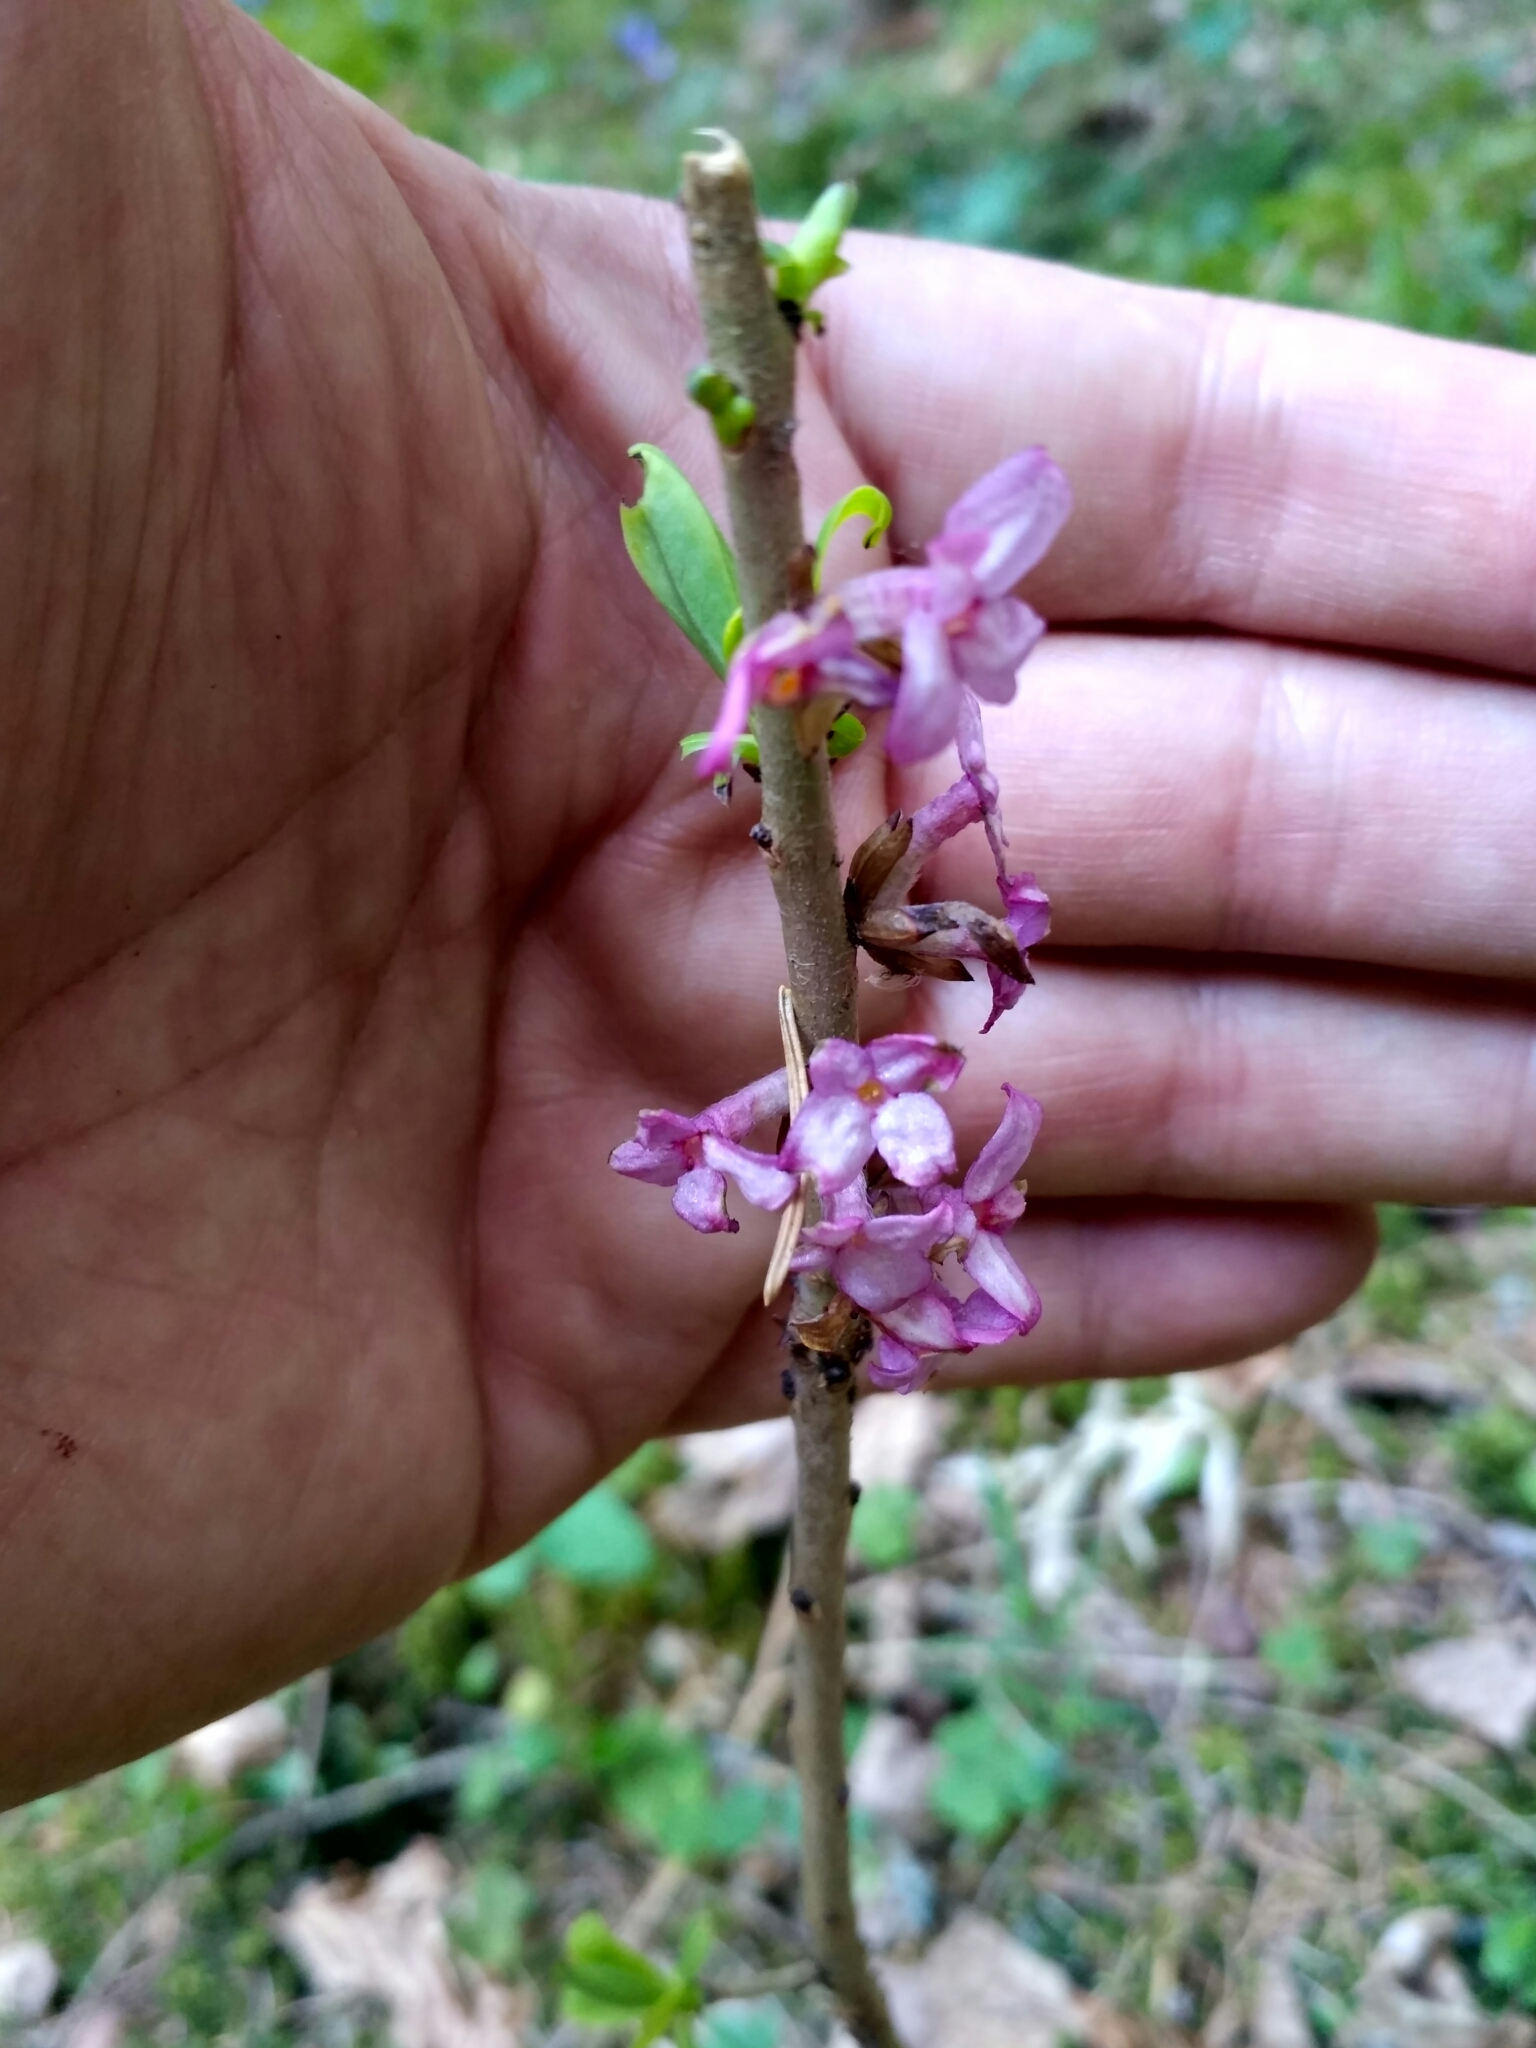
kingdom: Plantae
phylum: Tracheophyta
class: Magnoliopsida
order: Malvales
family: Thymelaeaceae
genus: Daphne
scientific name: Daphne mezereum
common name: Mezereon
